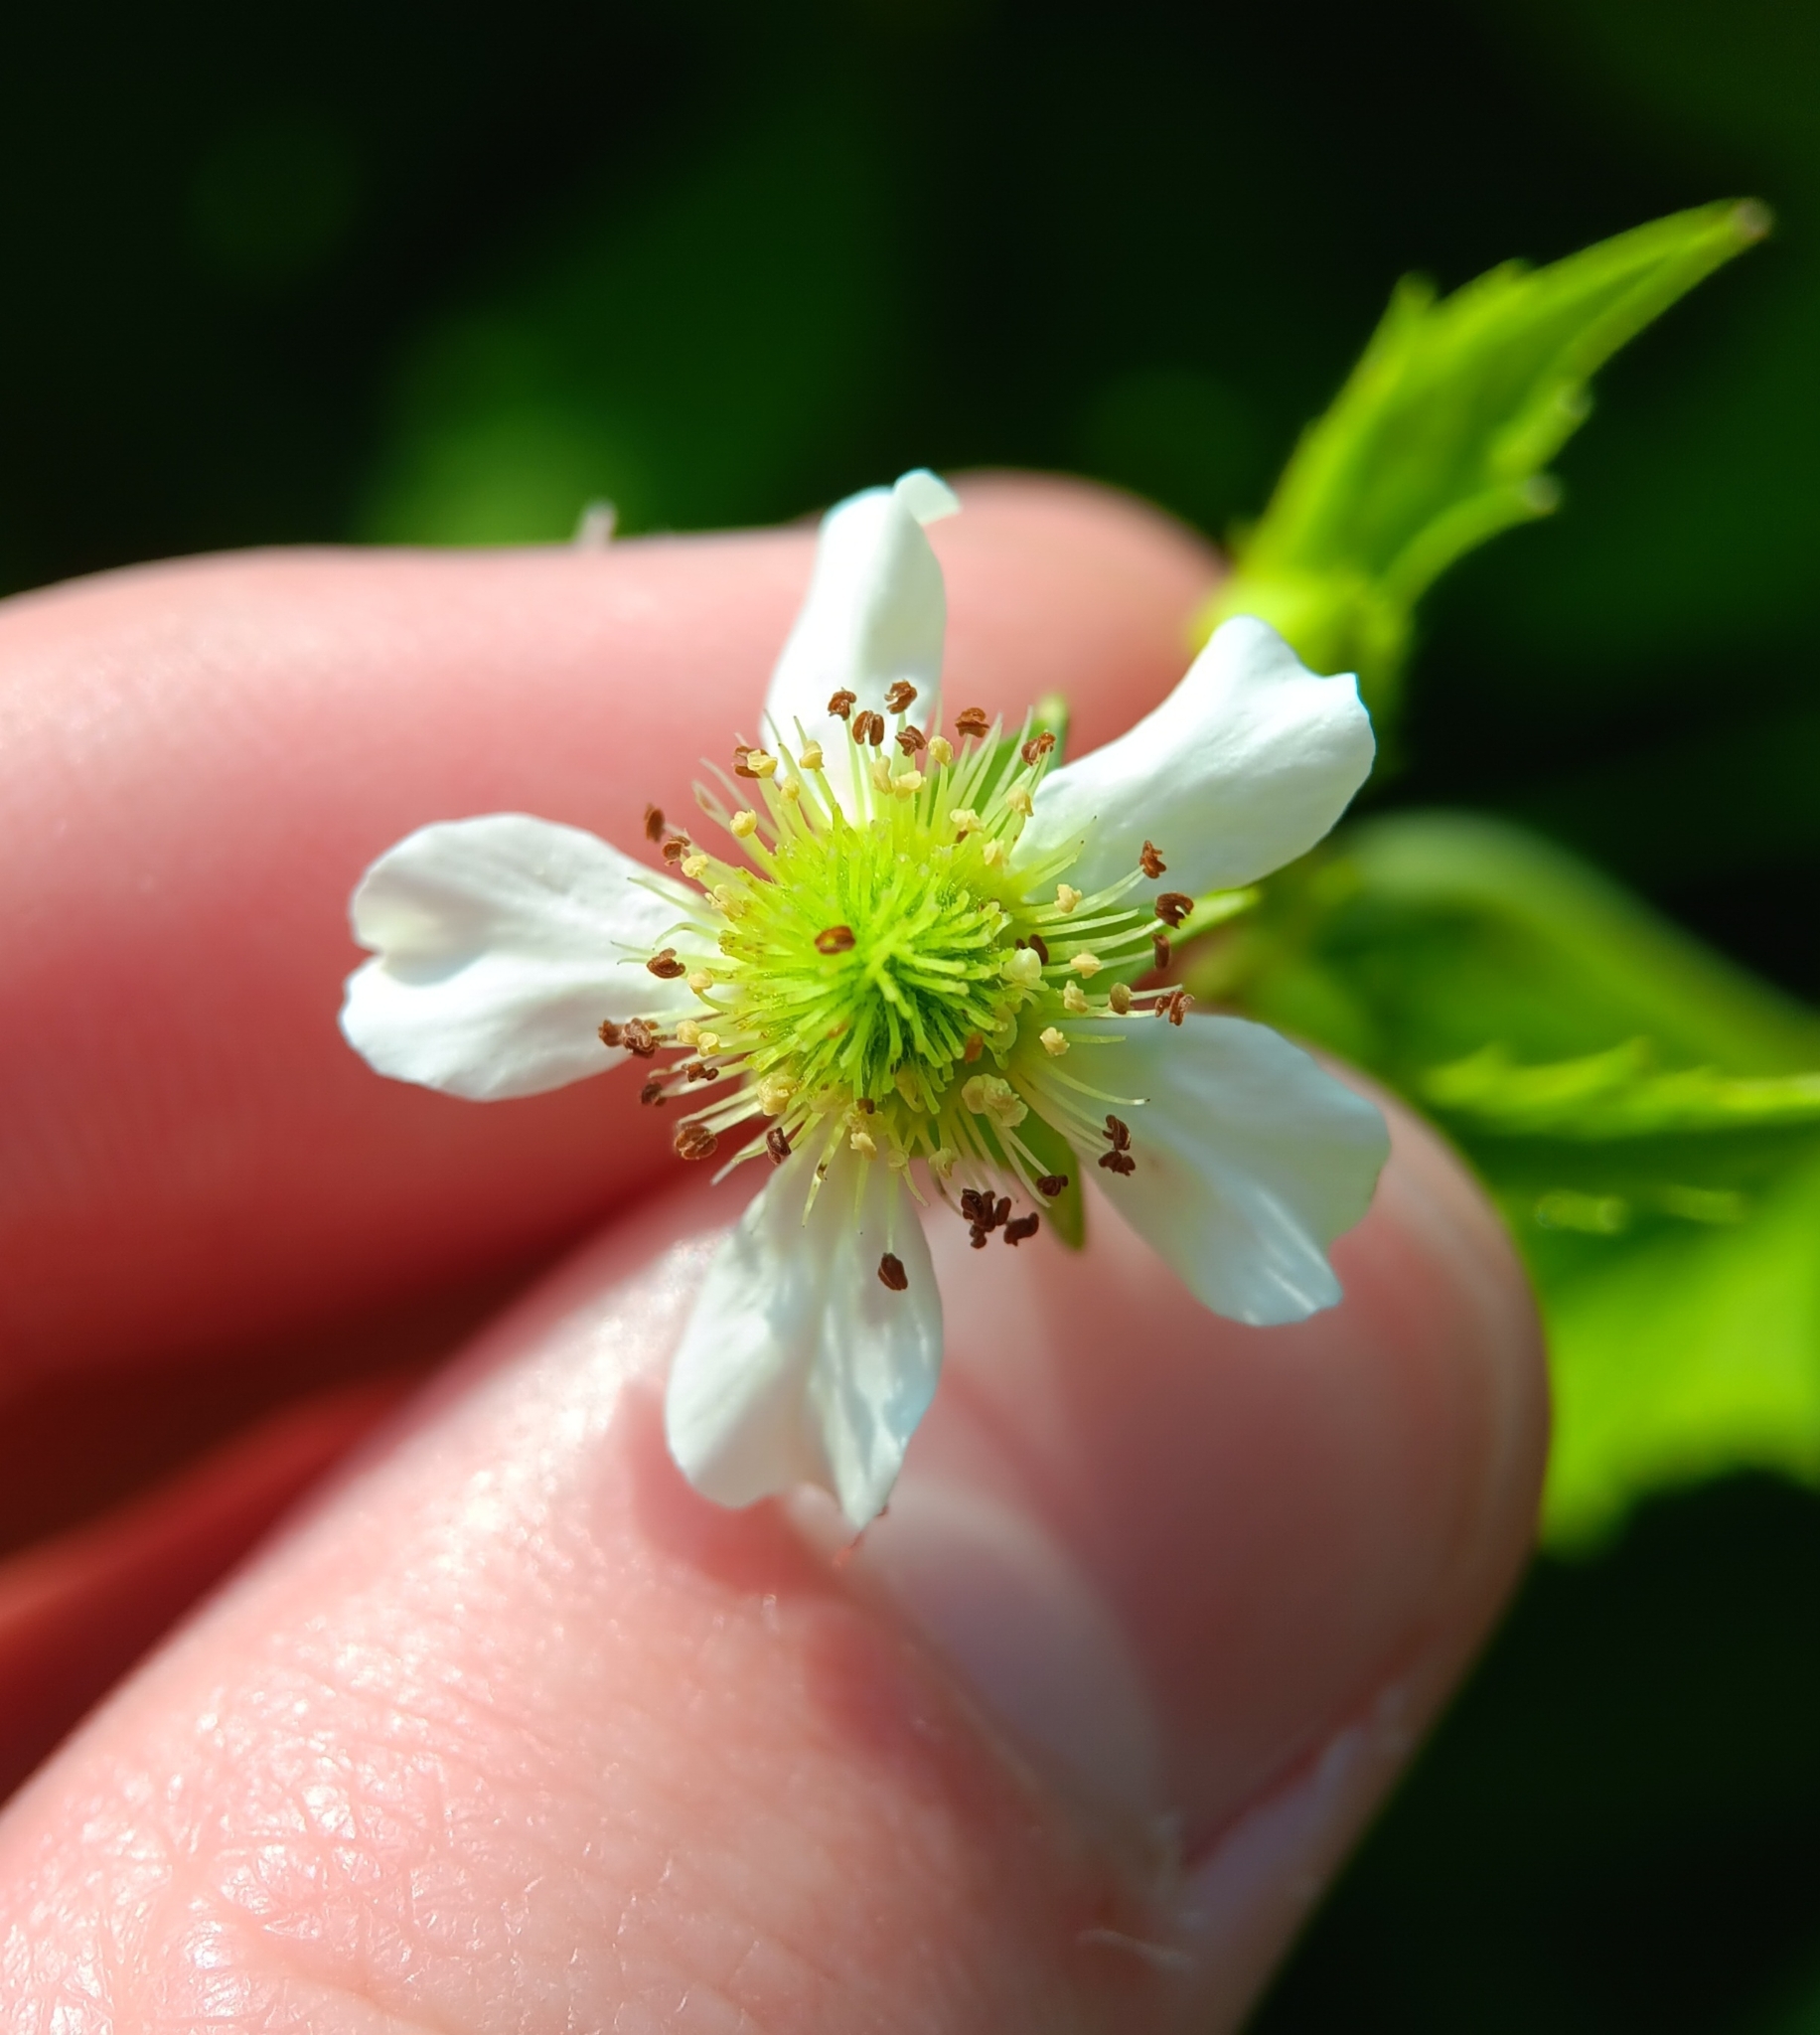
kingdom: Plantae
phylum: Tracheophyta
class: Magnoliopsida
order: Rosales
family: Rosaceae
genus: Geum
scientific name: Geum canadense
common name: White avens
